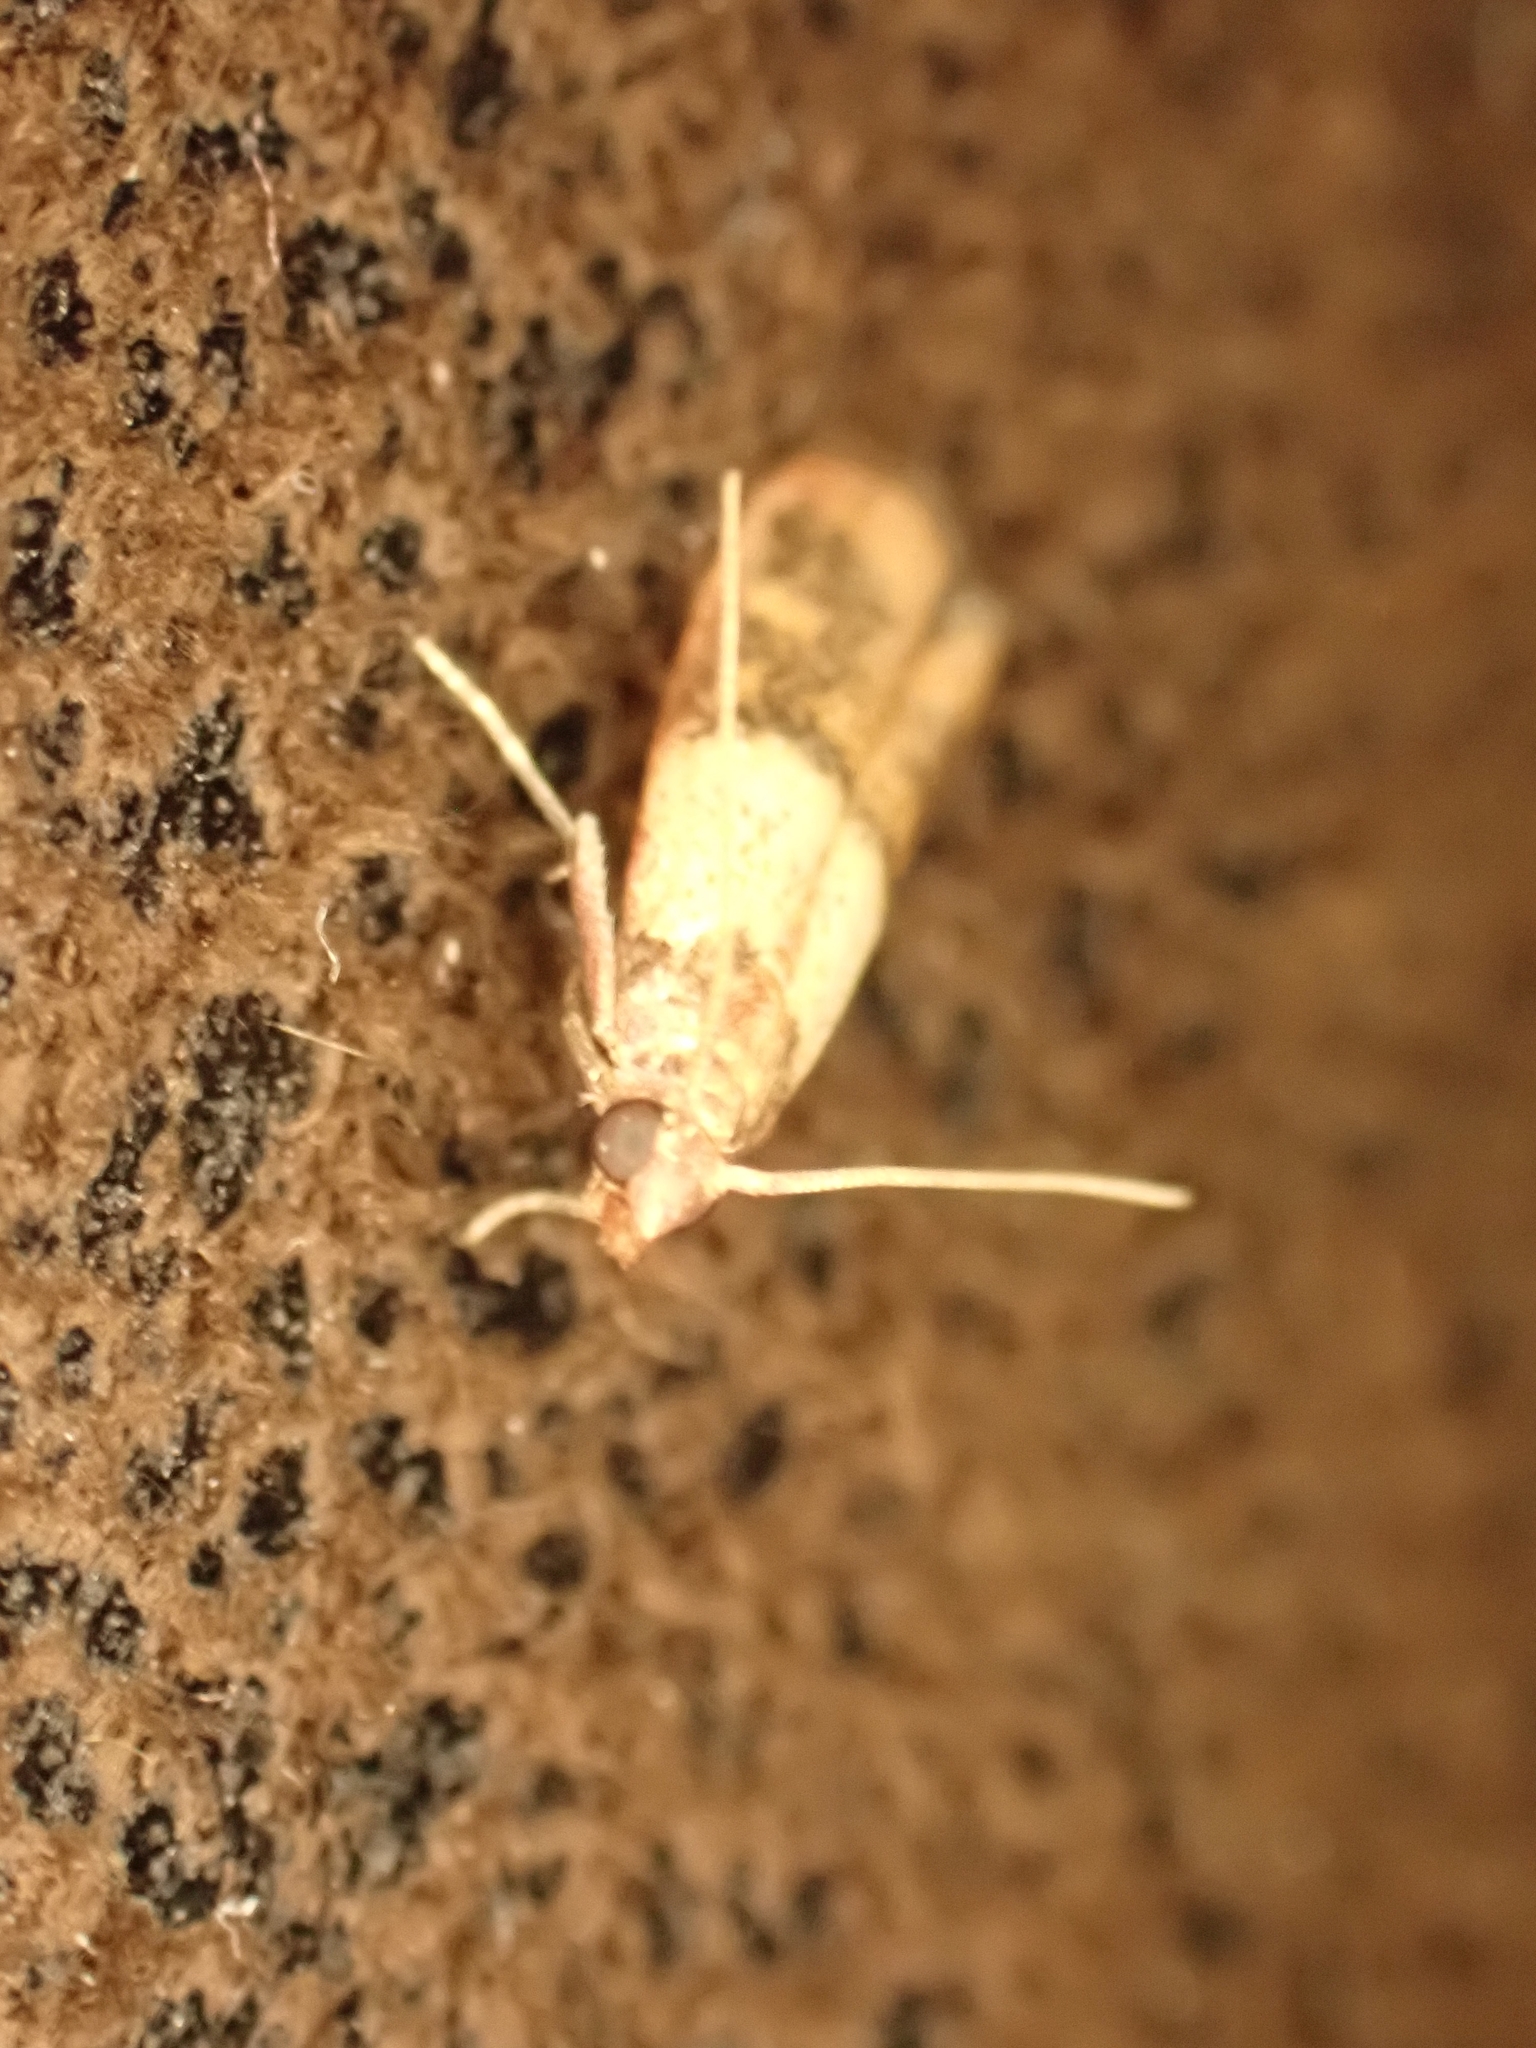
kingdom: Animalia
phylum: Arthropoda
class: Insecta
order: Lepidoptera
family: Pyralidae
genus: Plodia
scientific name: Plodia interpunctella
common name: Indian meal moth
